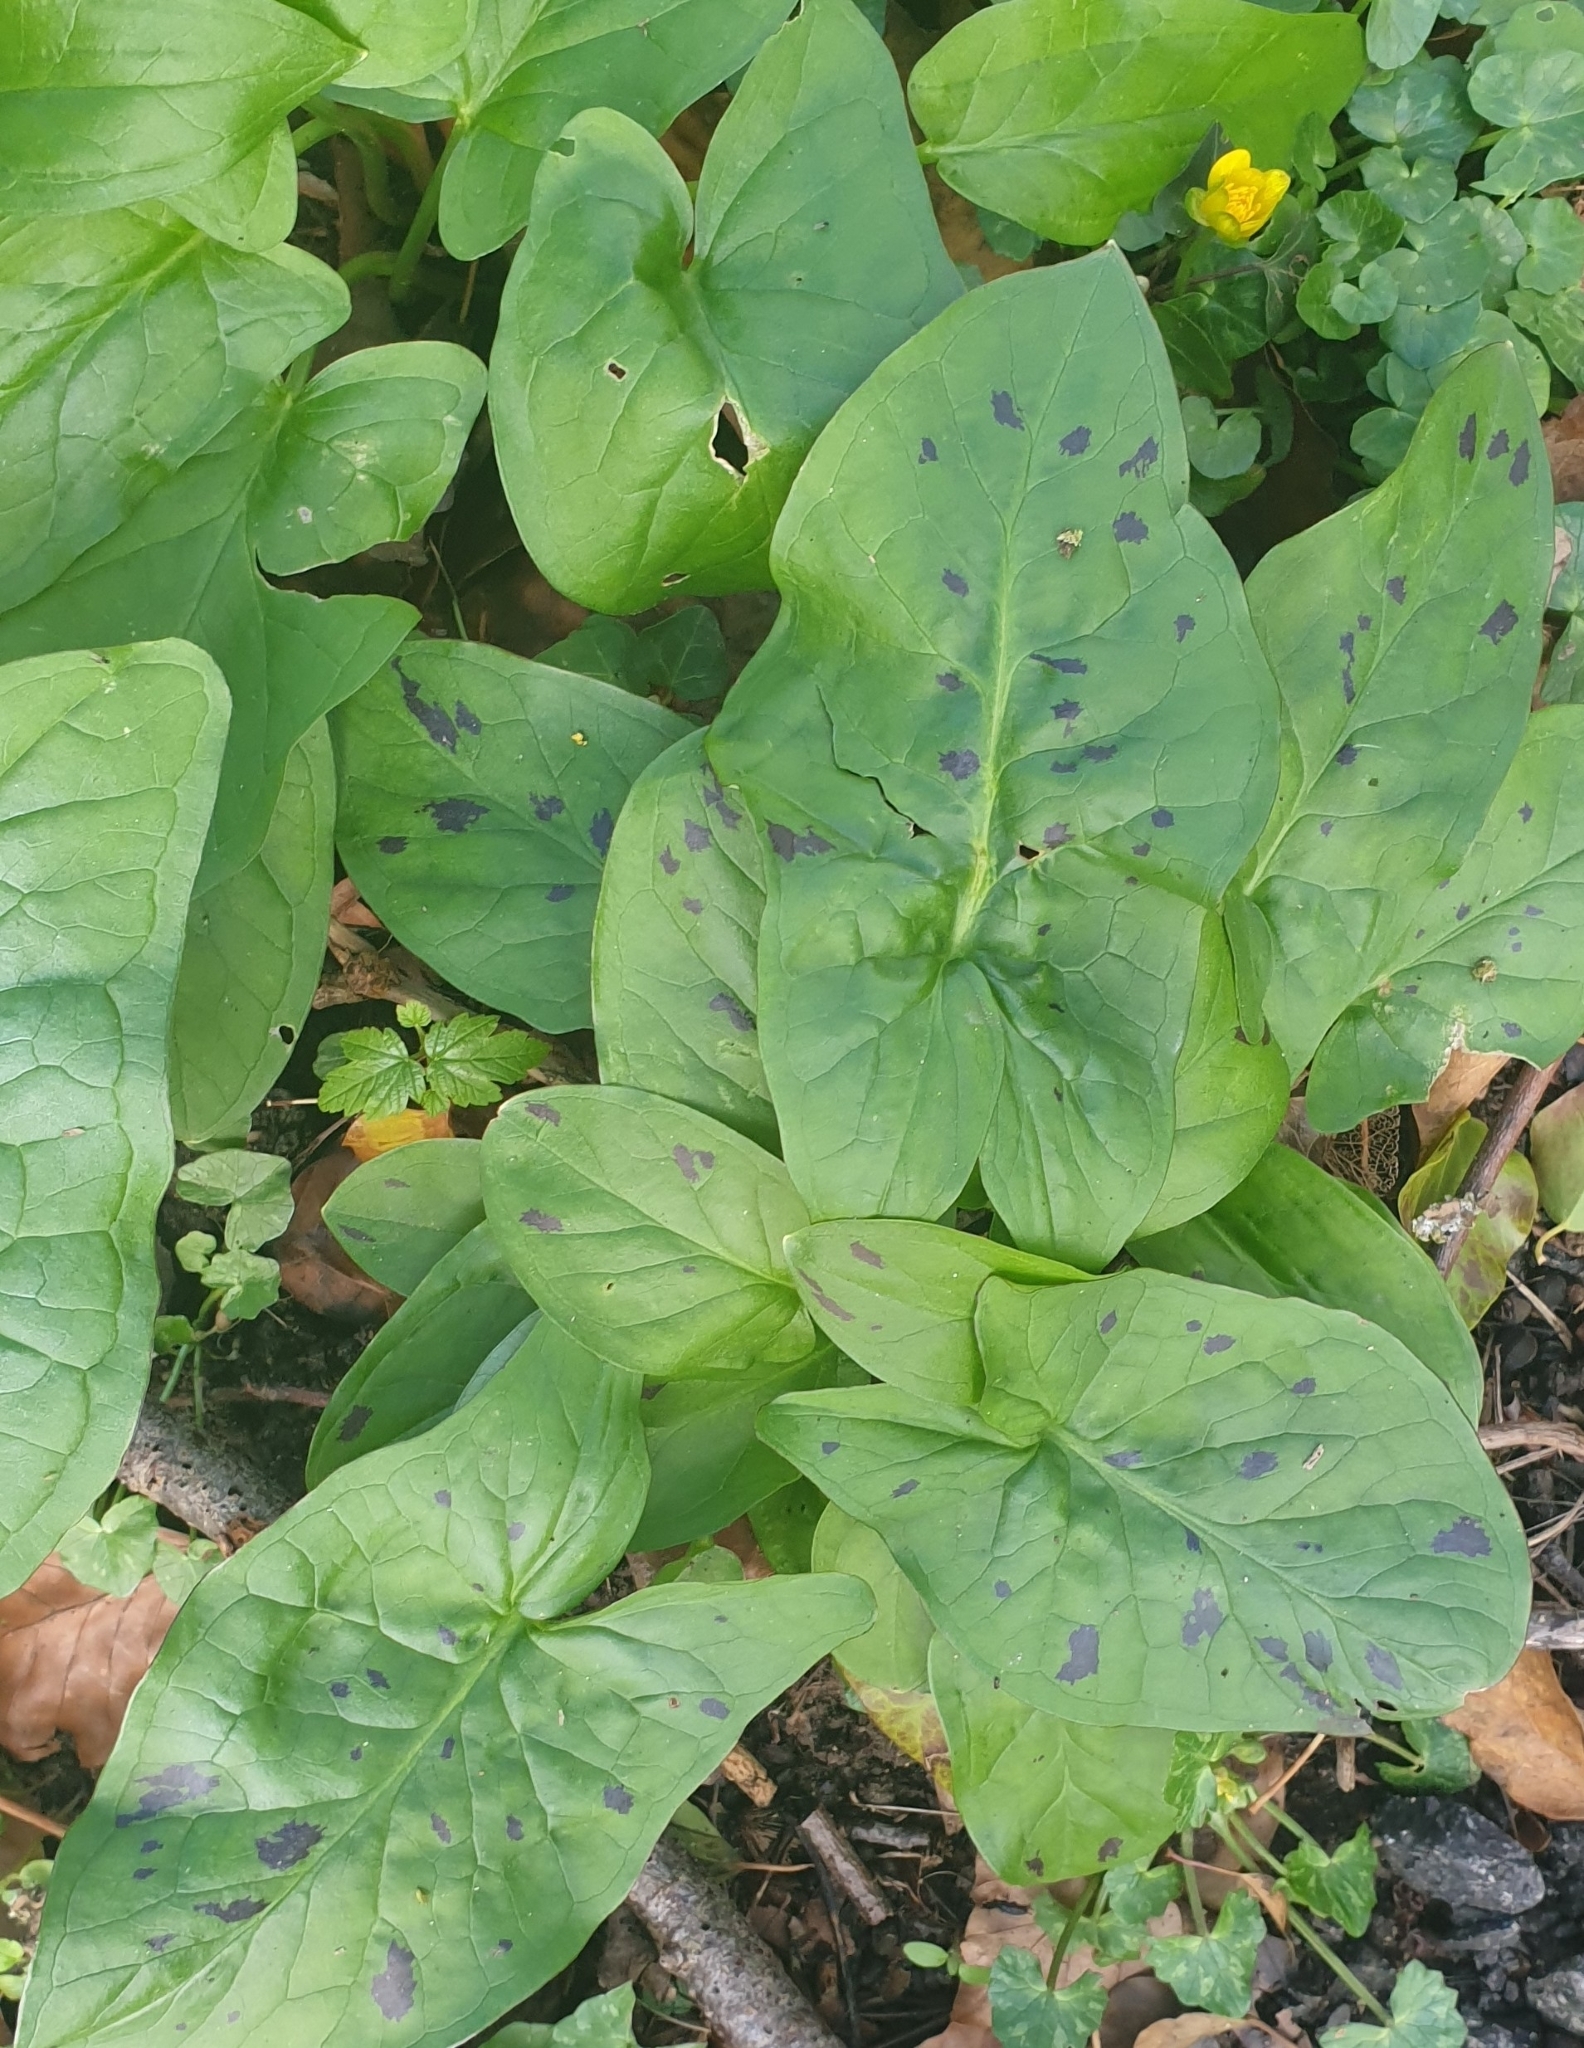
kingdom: Plantae
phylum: Tracheophyta
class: Liliopsida
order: Alismatales
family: Araceae
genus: Arum
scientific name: Arum maculatum
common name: Lords-and-ladies
